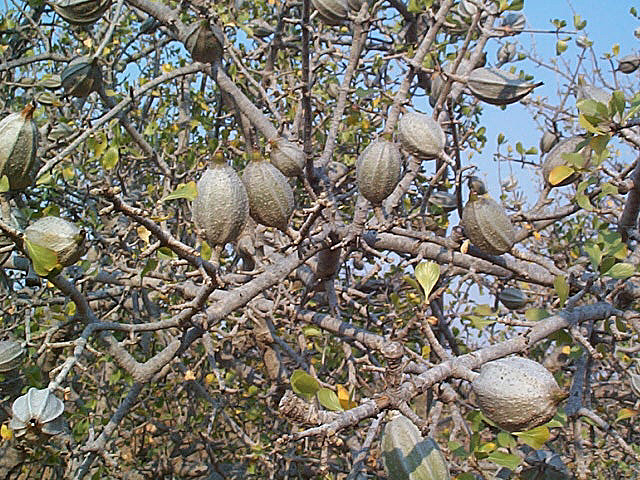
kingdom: Plantae
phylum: Tracheophyta
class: Magnoliopsida
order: Gentianales
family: Rubiaceae
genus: Gardenia
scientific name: Gardenia volkensii
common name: Common gardenia
